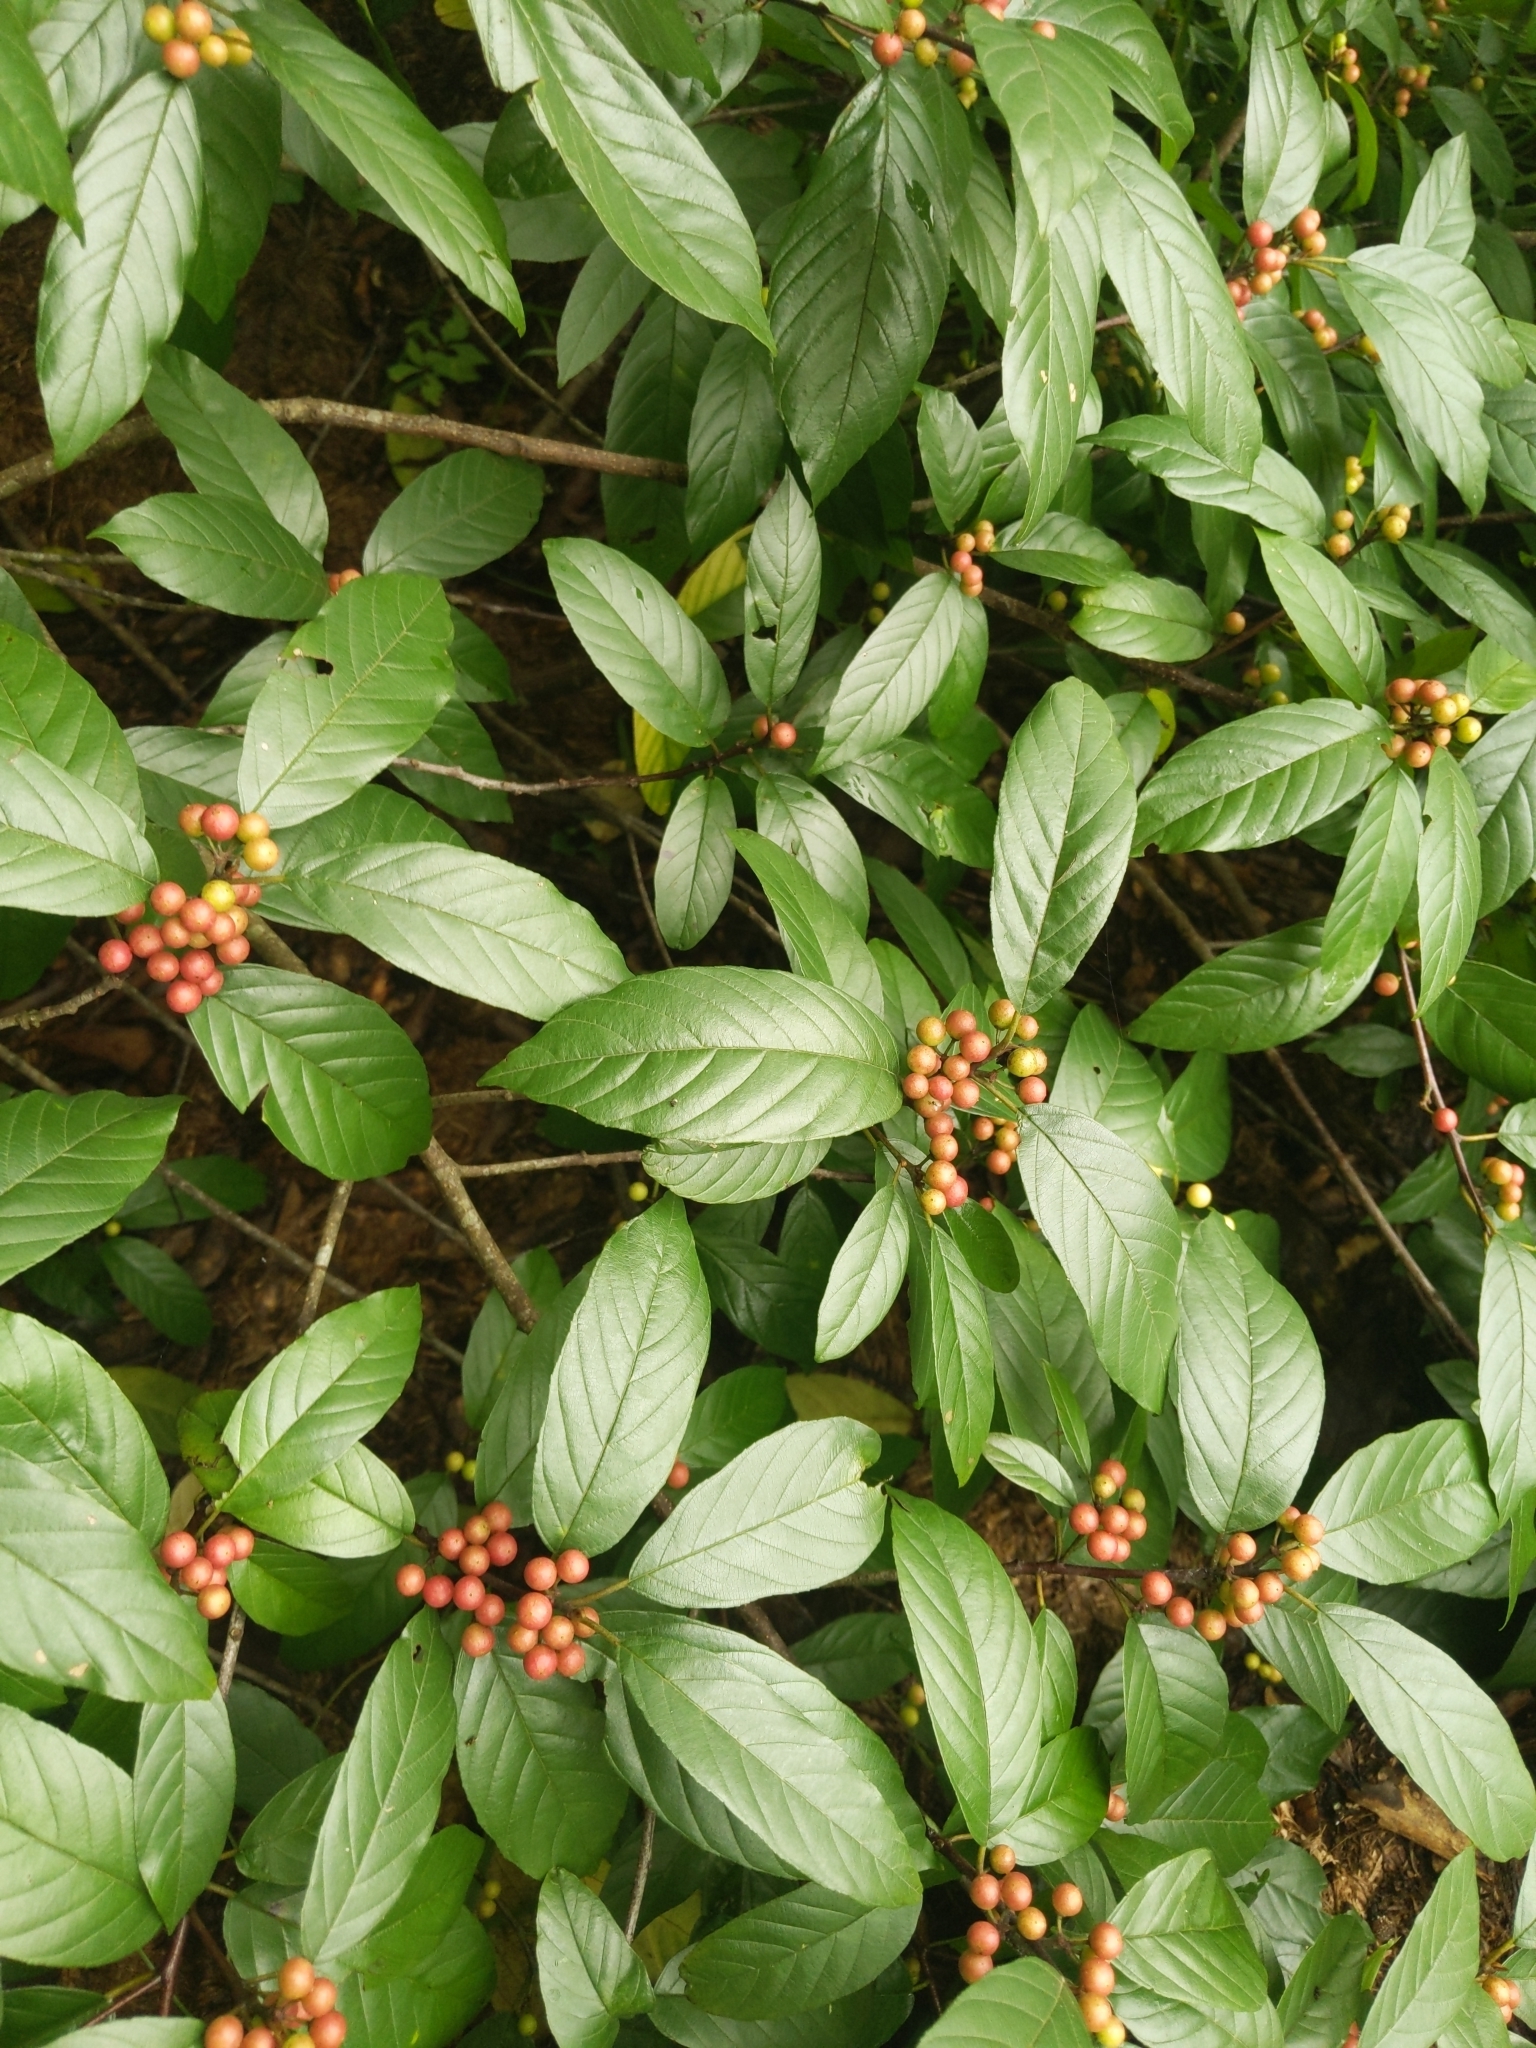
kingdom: Plantae
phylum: Tracheophyta
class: Magnoliopsida
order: Rosales
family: Rhamnaceae
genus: Frangula
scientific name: Frangula caroliniana
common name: Carolina buckthorn
